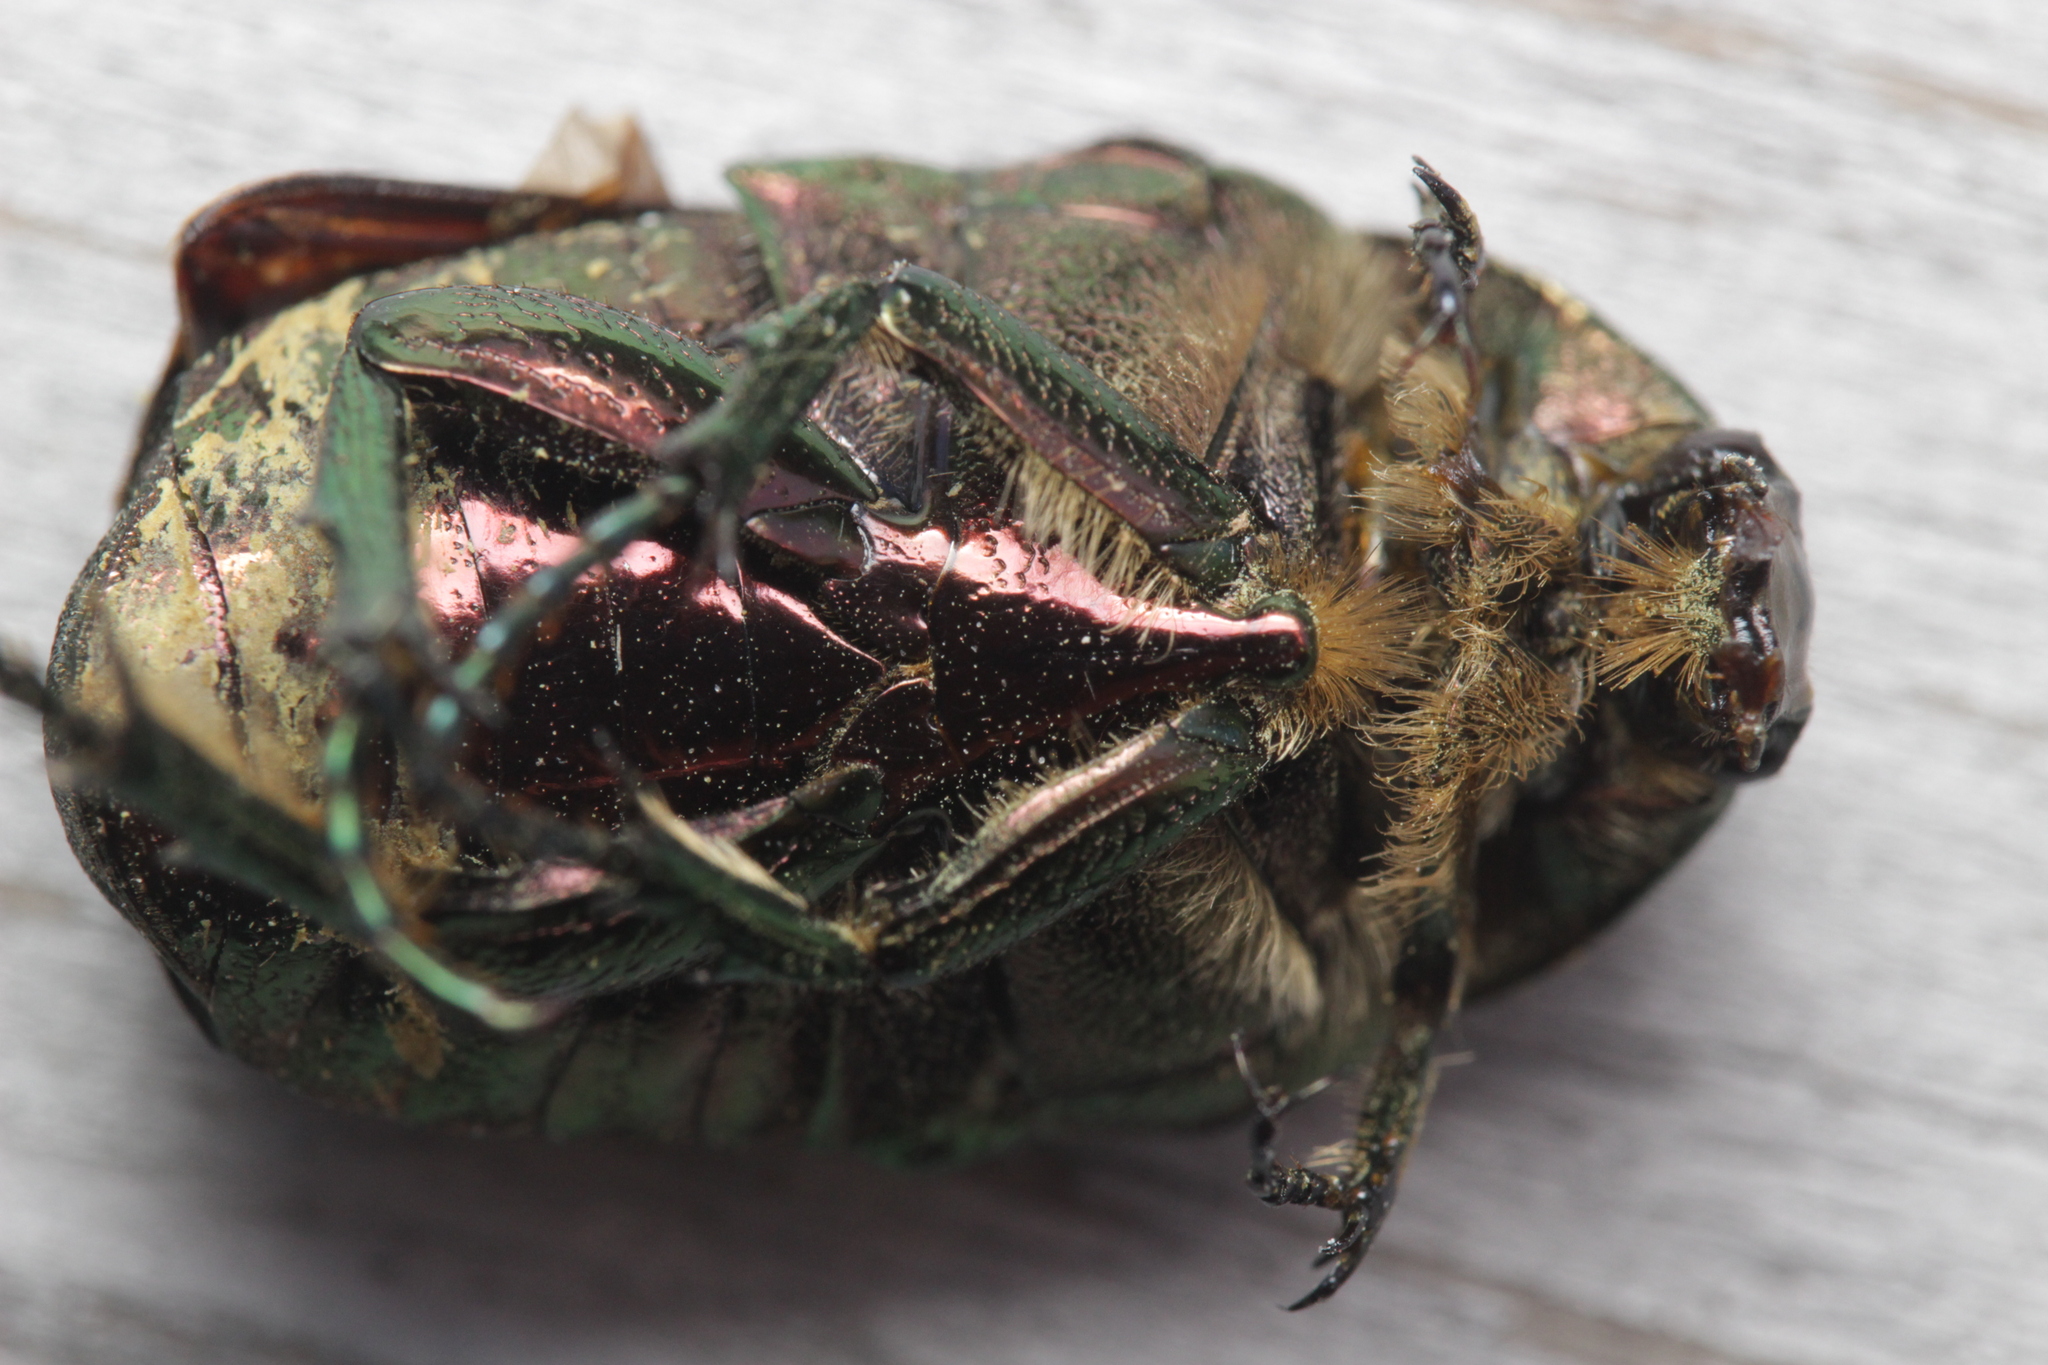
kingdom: Animalia
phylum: Arthropoda
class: Insecta
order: Coleoptera
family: Scarabaeidae
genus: Cetonia
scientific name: Cetonia aurata
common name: Rose chafer
